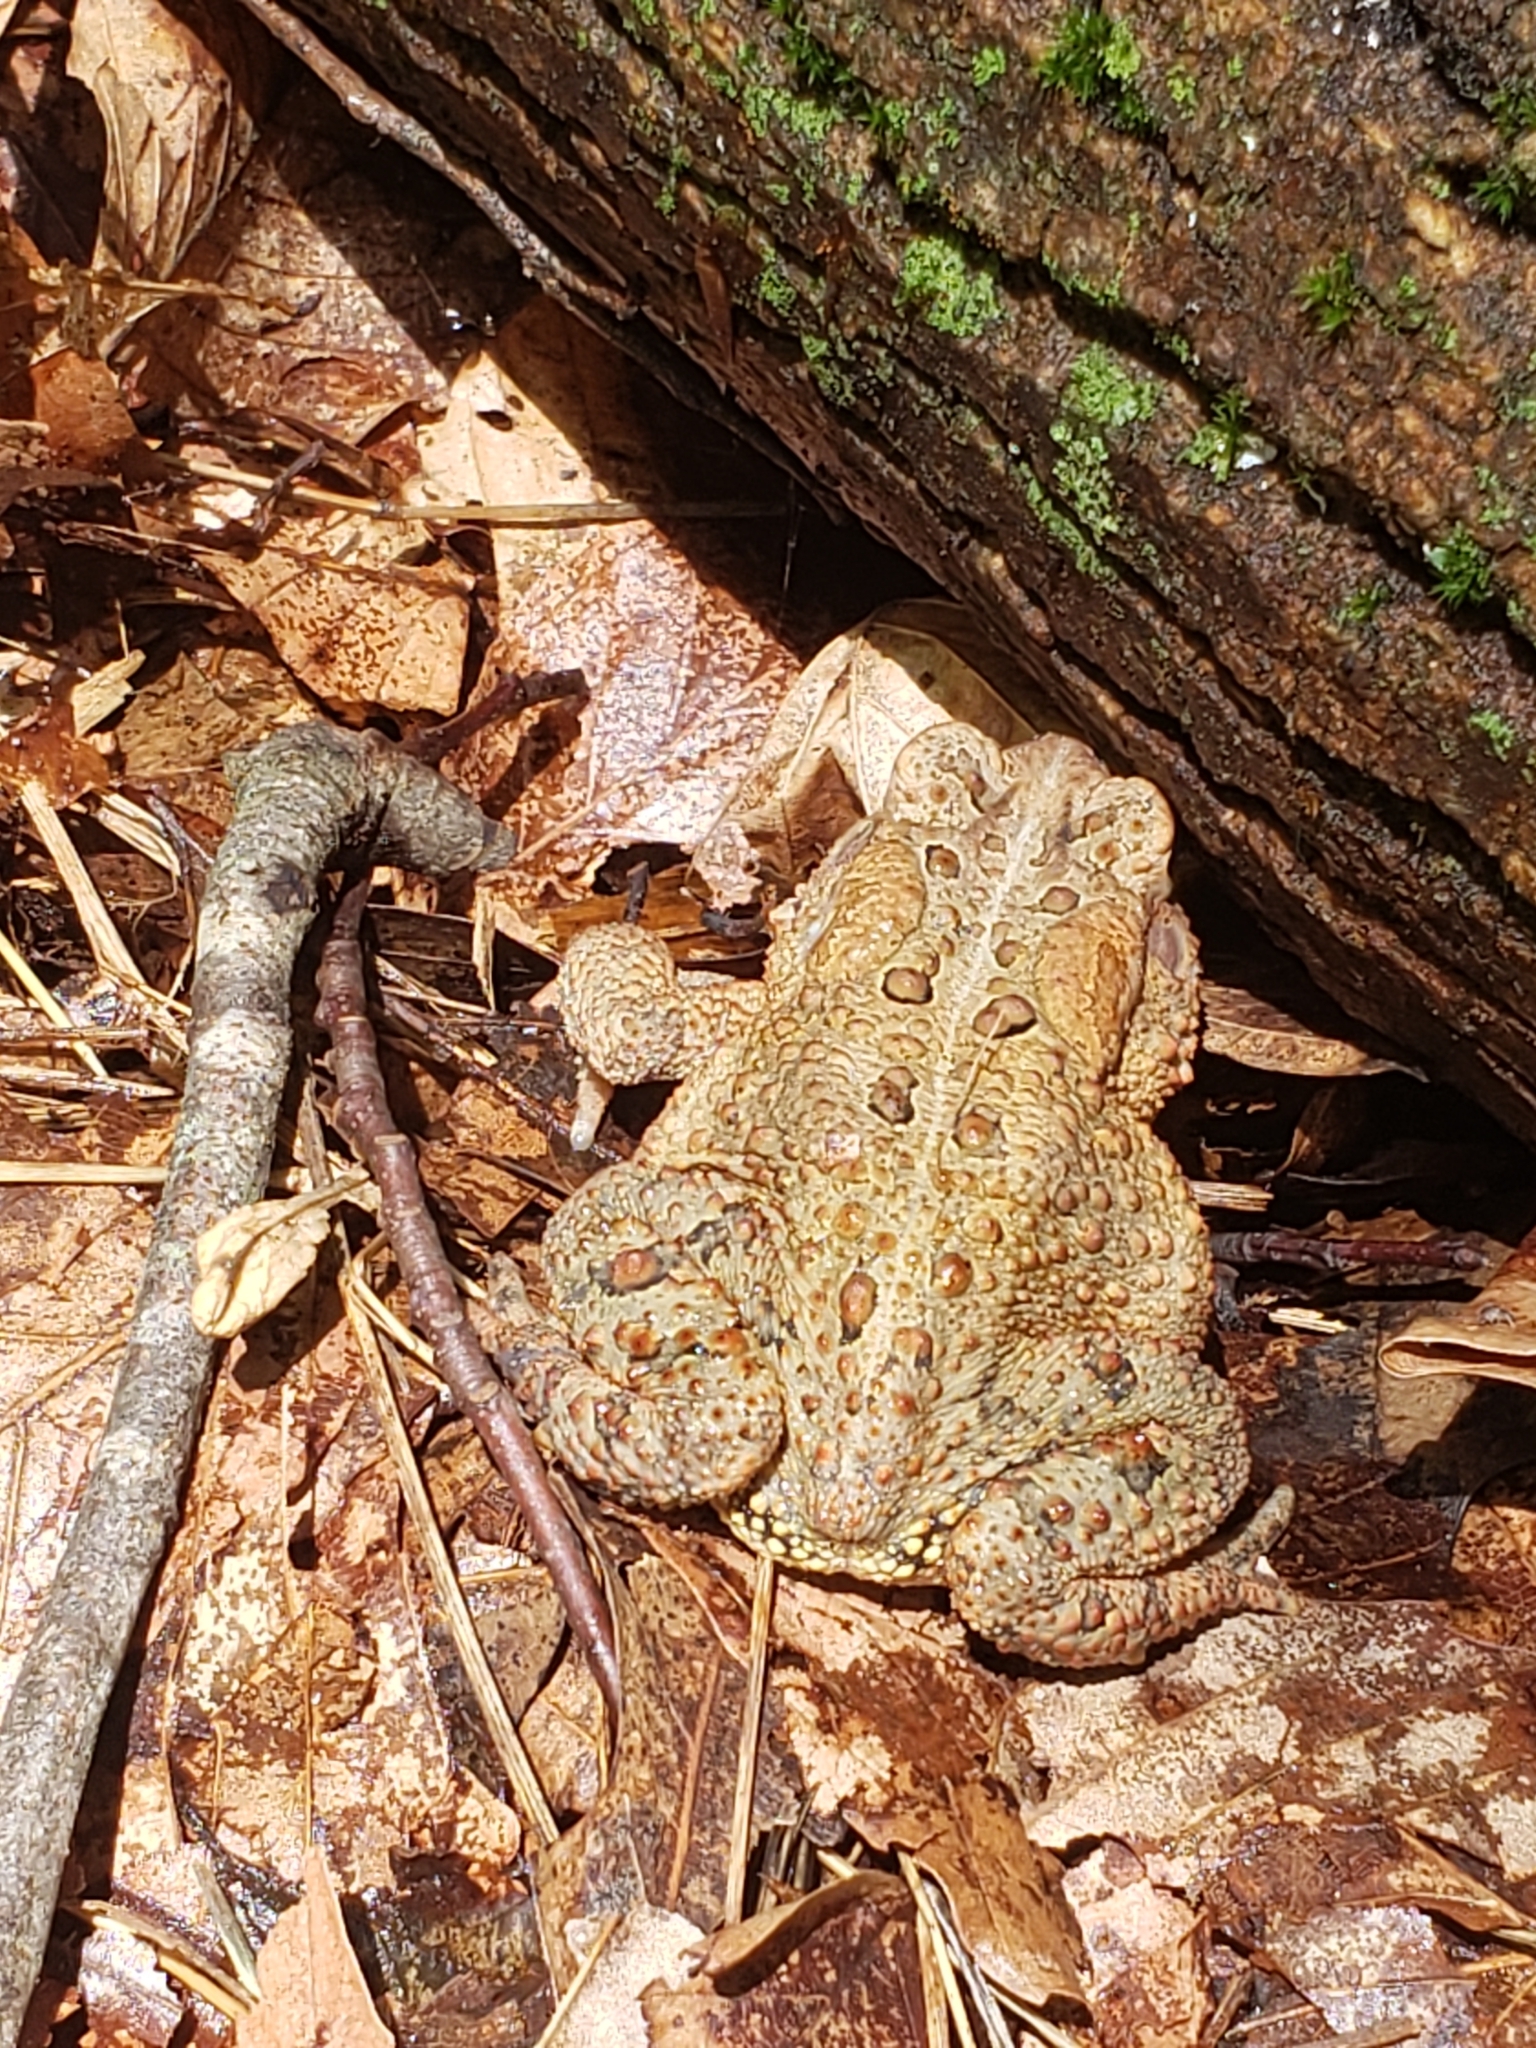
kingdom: Animalia
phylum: Chordata
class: Amphibia
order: Anura
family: Bufonidae
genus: Anaxyrus
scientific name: Anaxyrus americanus
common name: American toad
